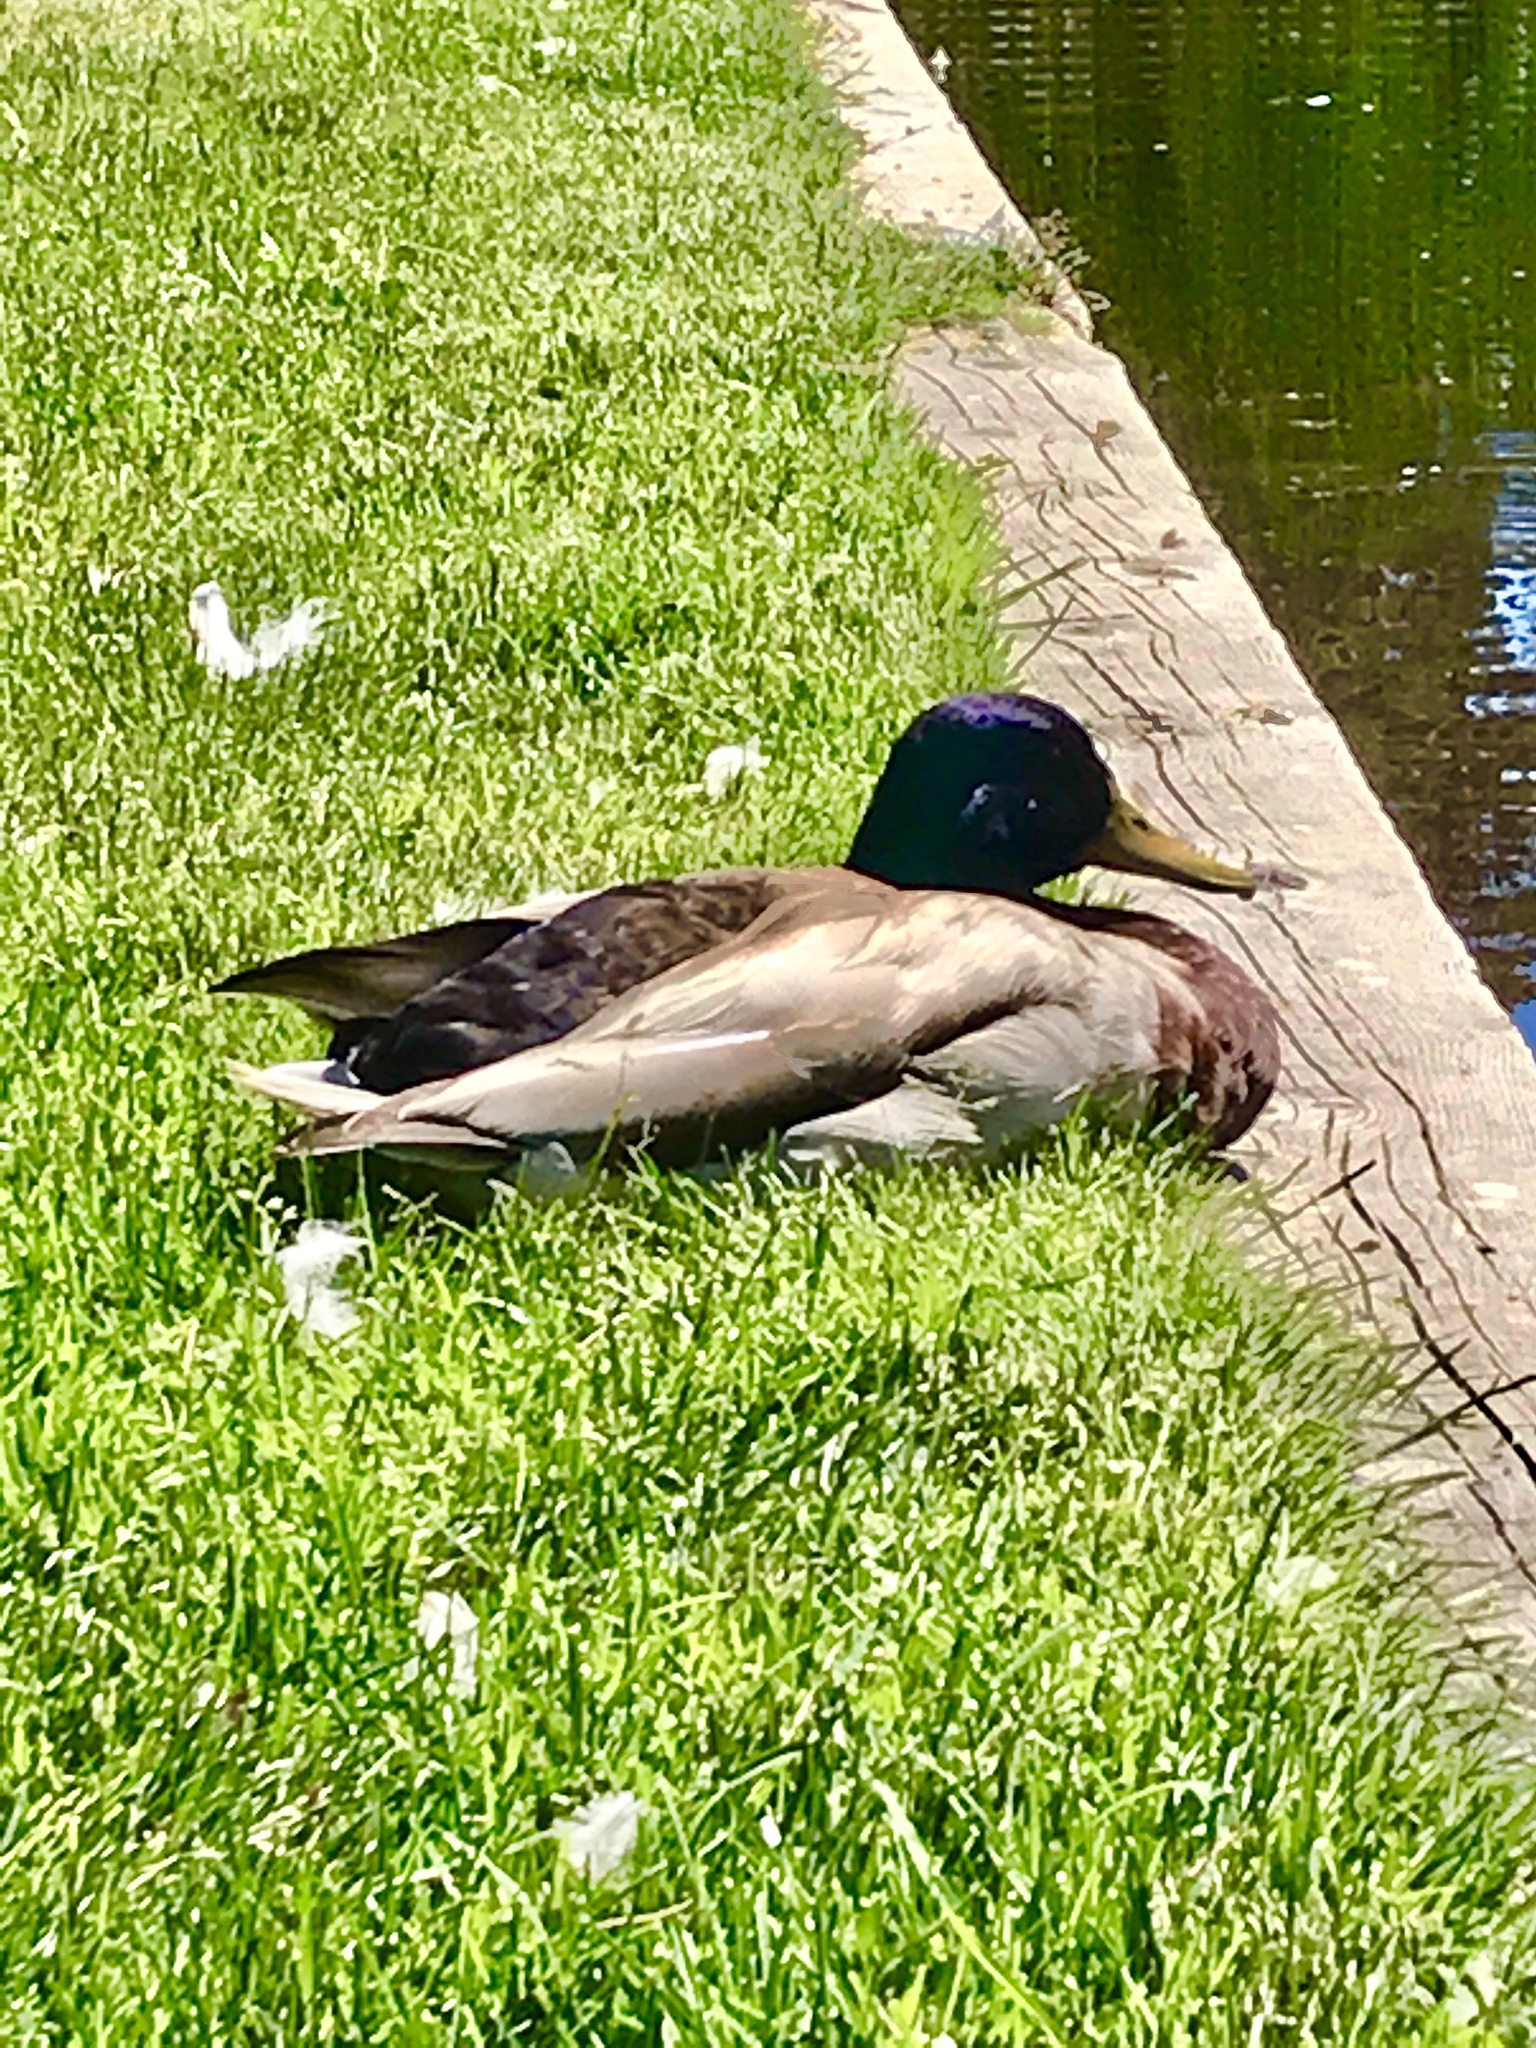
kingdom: Animalia
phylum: Chordata
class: Aves
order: Anseriformes
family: Anatidae
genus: Anas
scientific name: Anas platyrhynchos
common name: Mallard
